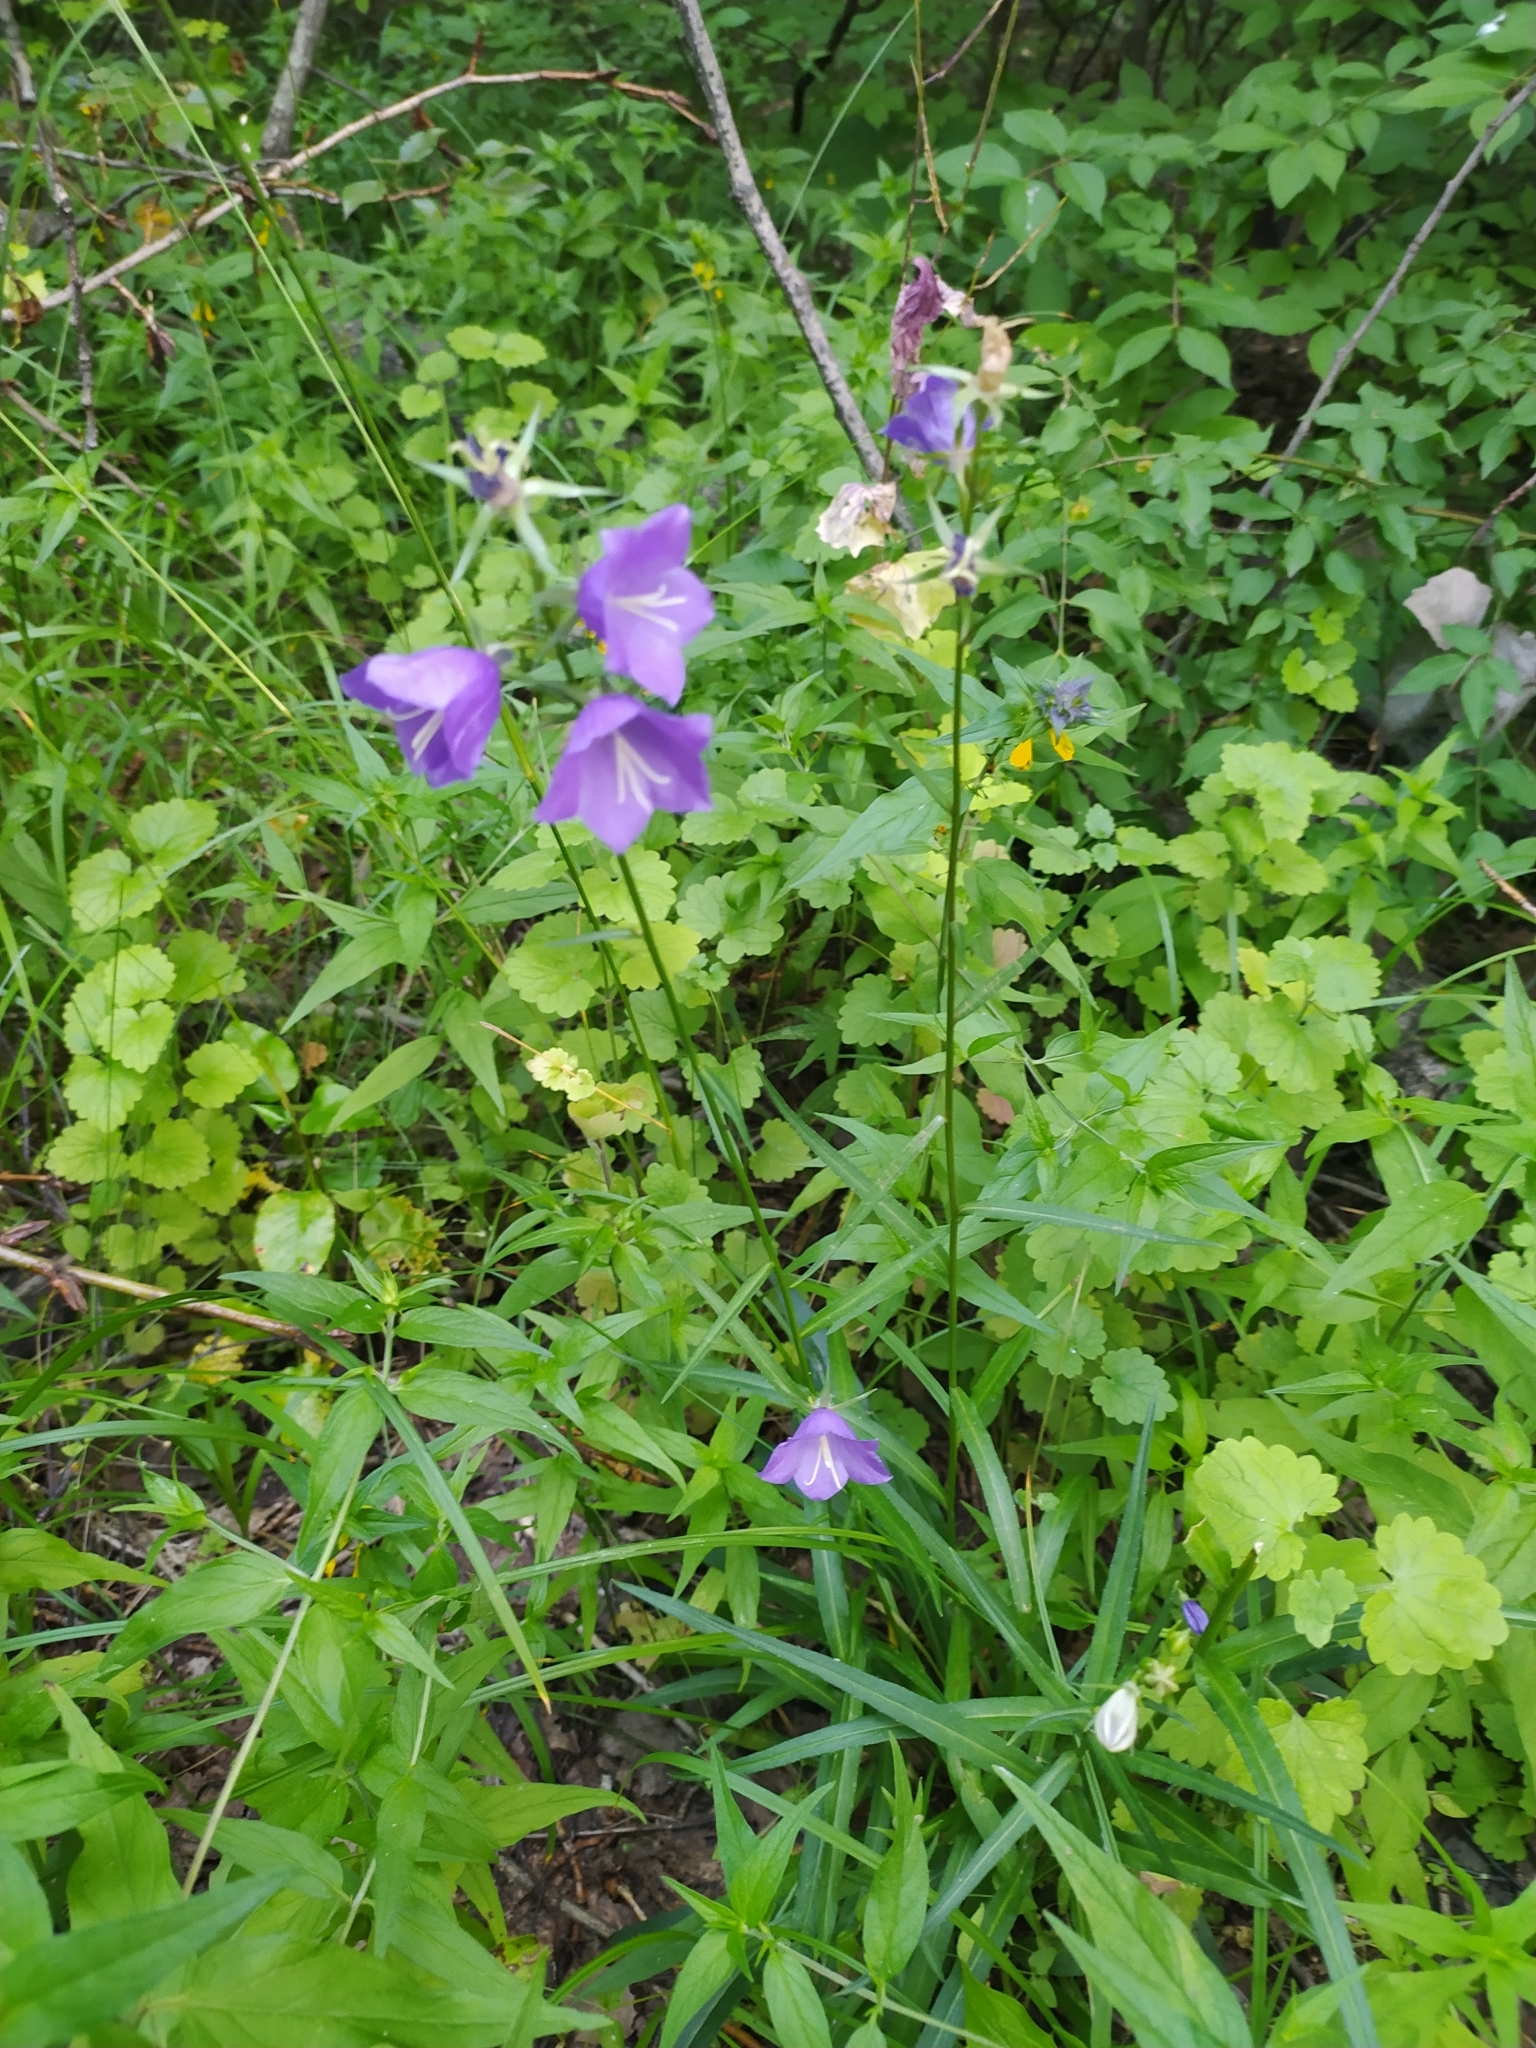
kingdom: Plantae
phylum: Tracheophyta
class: Magnoliopsida
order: Asterales
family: Campanulaceae
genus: Campanula
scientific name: Campanula persicifolia
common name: Peach-leaved bellflower
